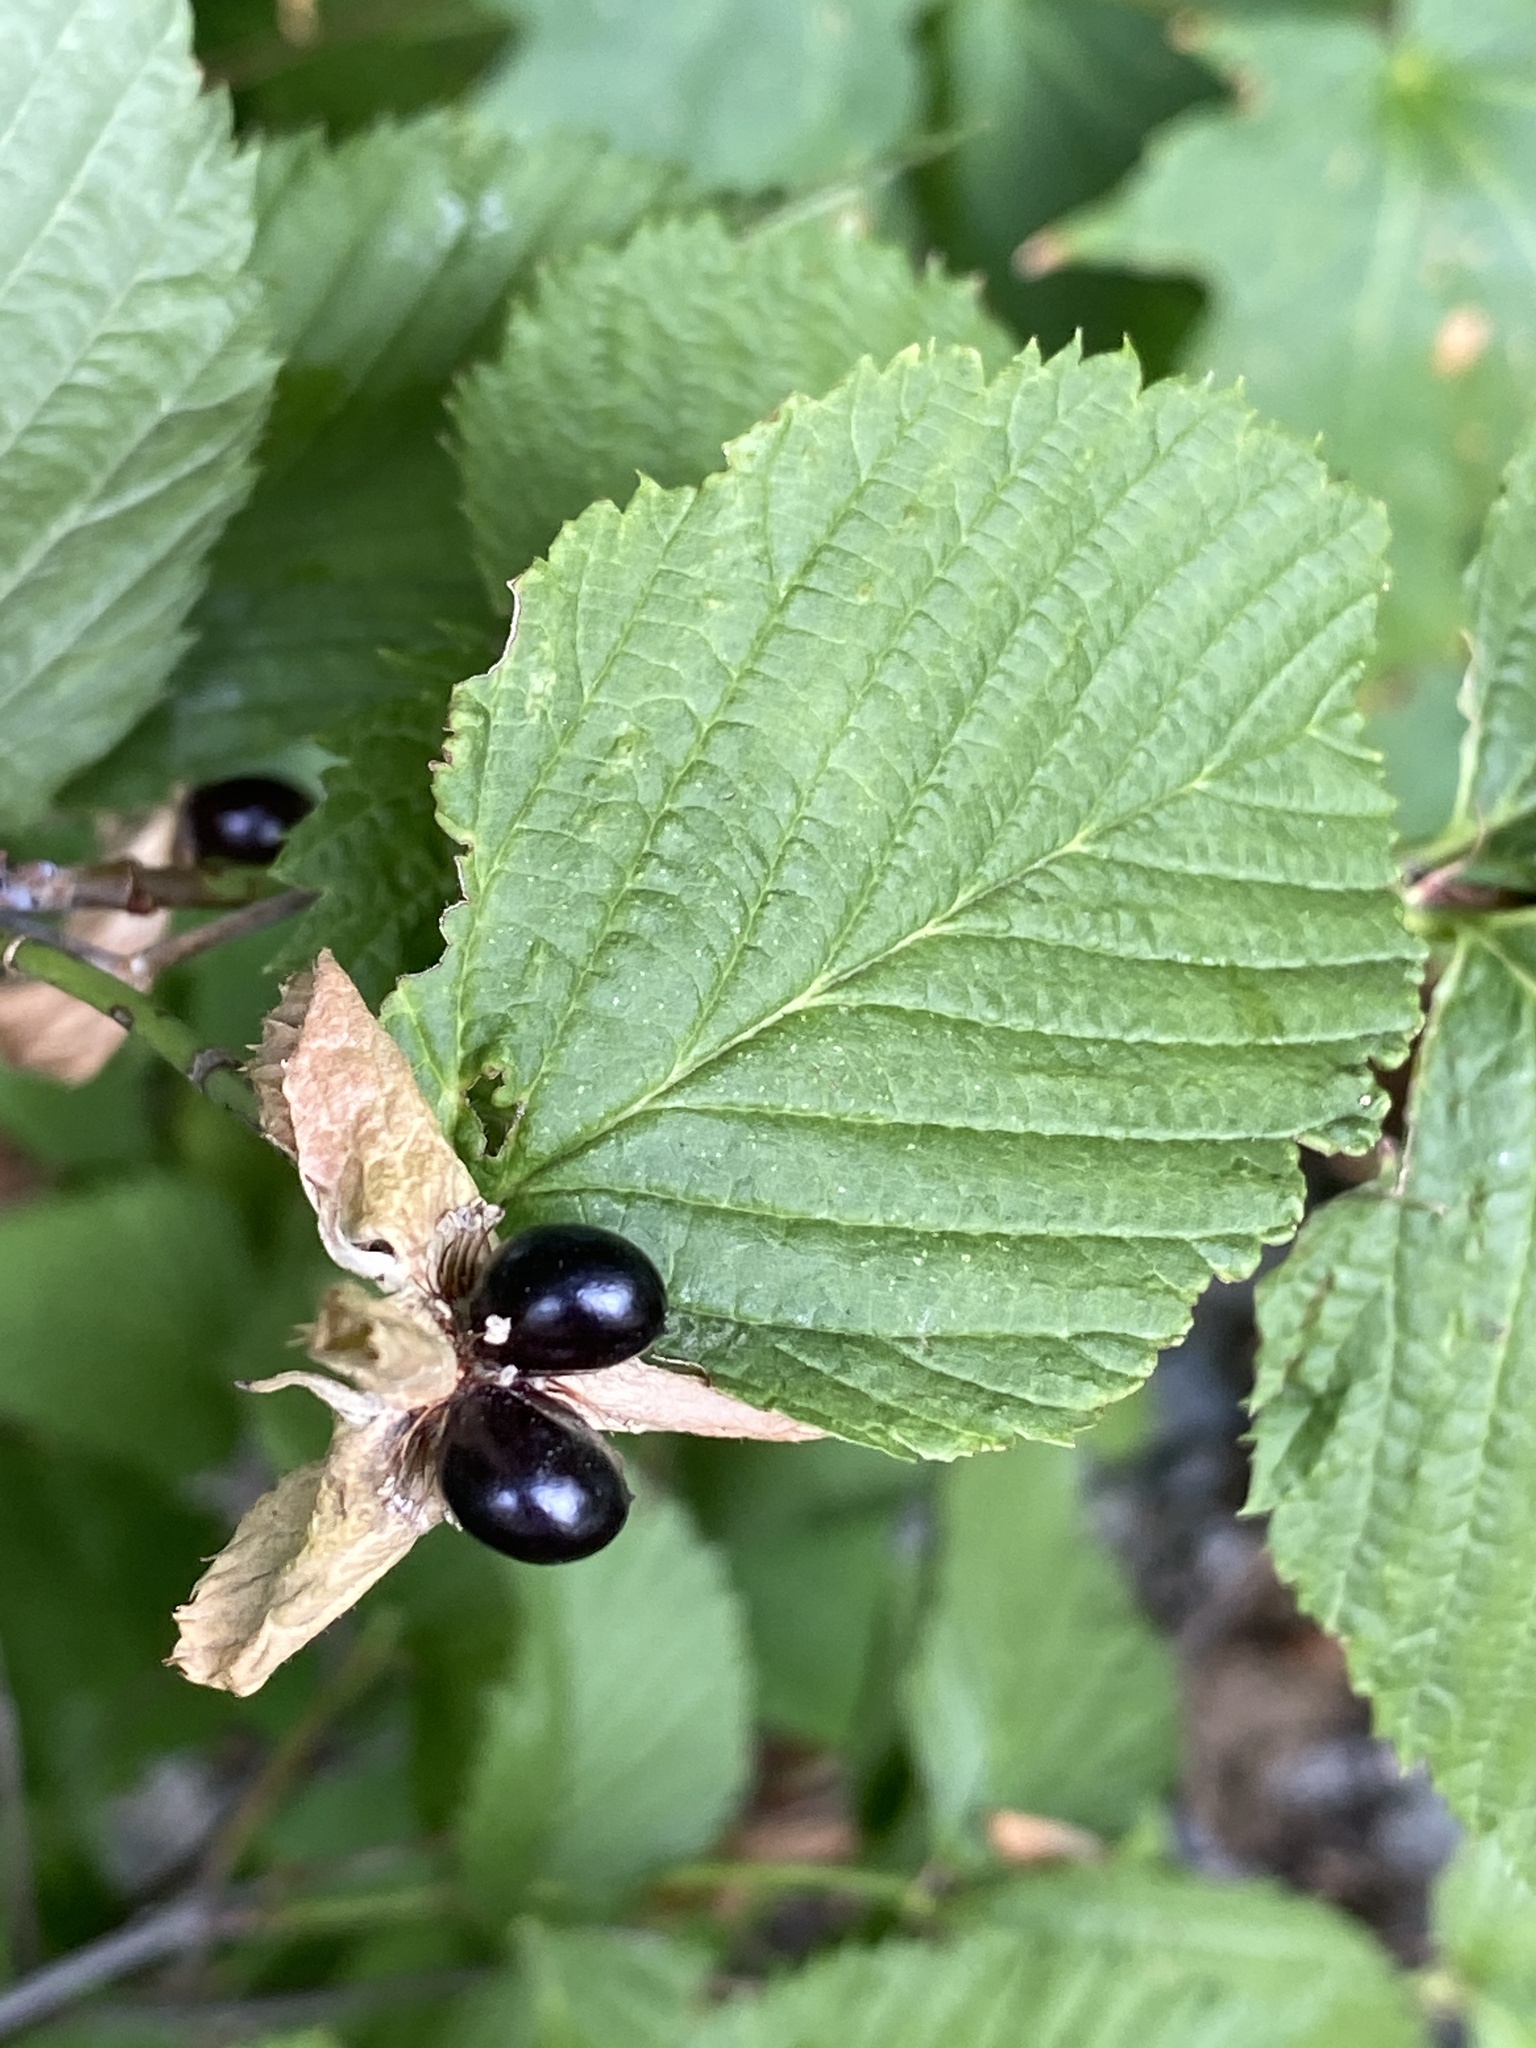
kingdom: Plantae
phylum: Tracheophyta
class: Magnoliopsida
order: Rosales
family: Rosaceae
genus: Rhodotypos
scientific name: Rhodotypos scandens
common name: Jetbead
